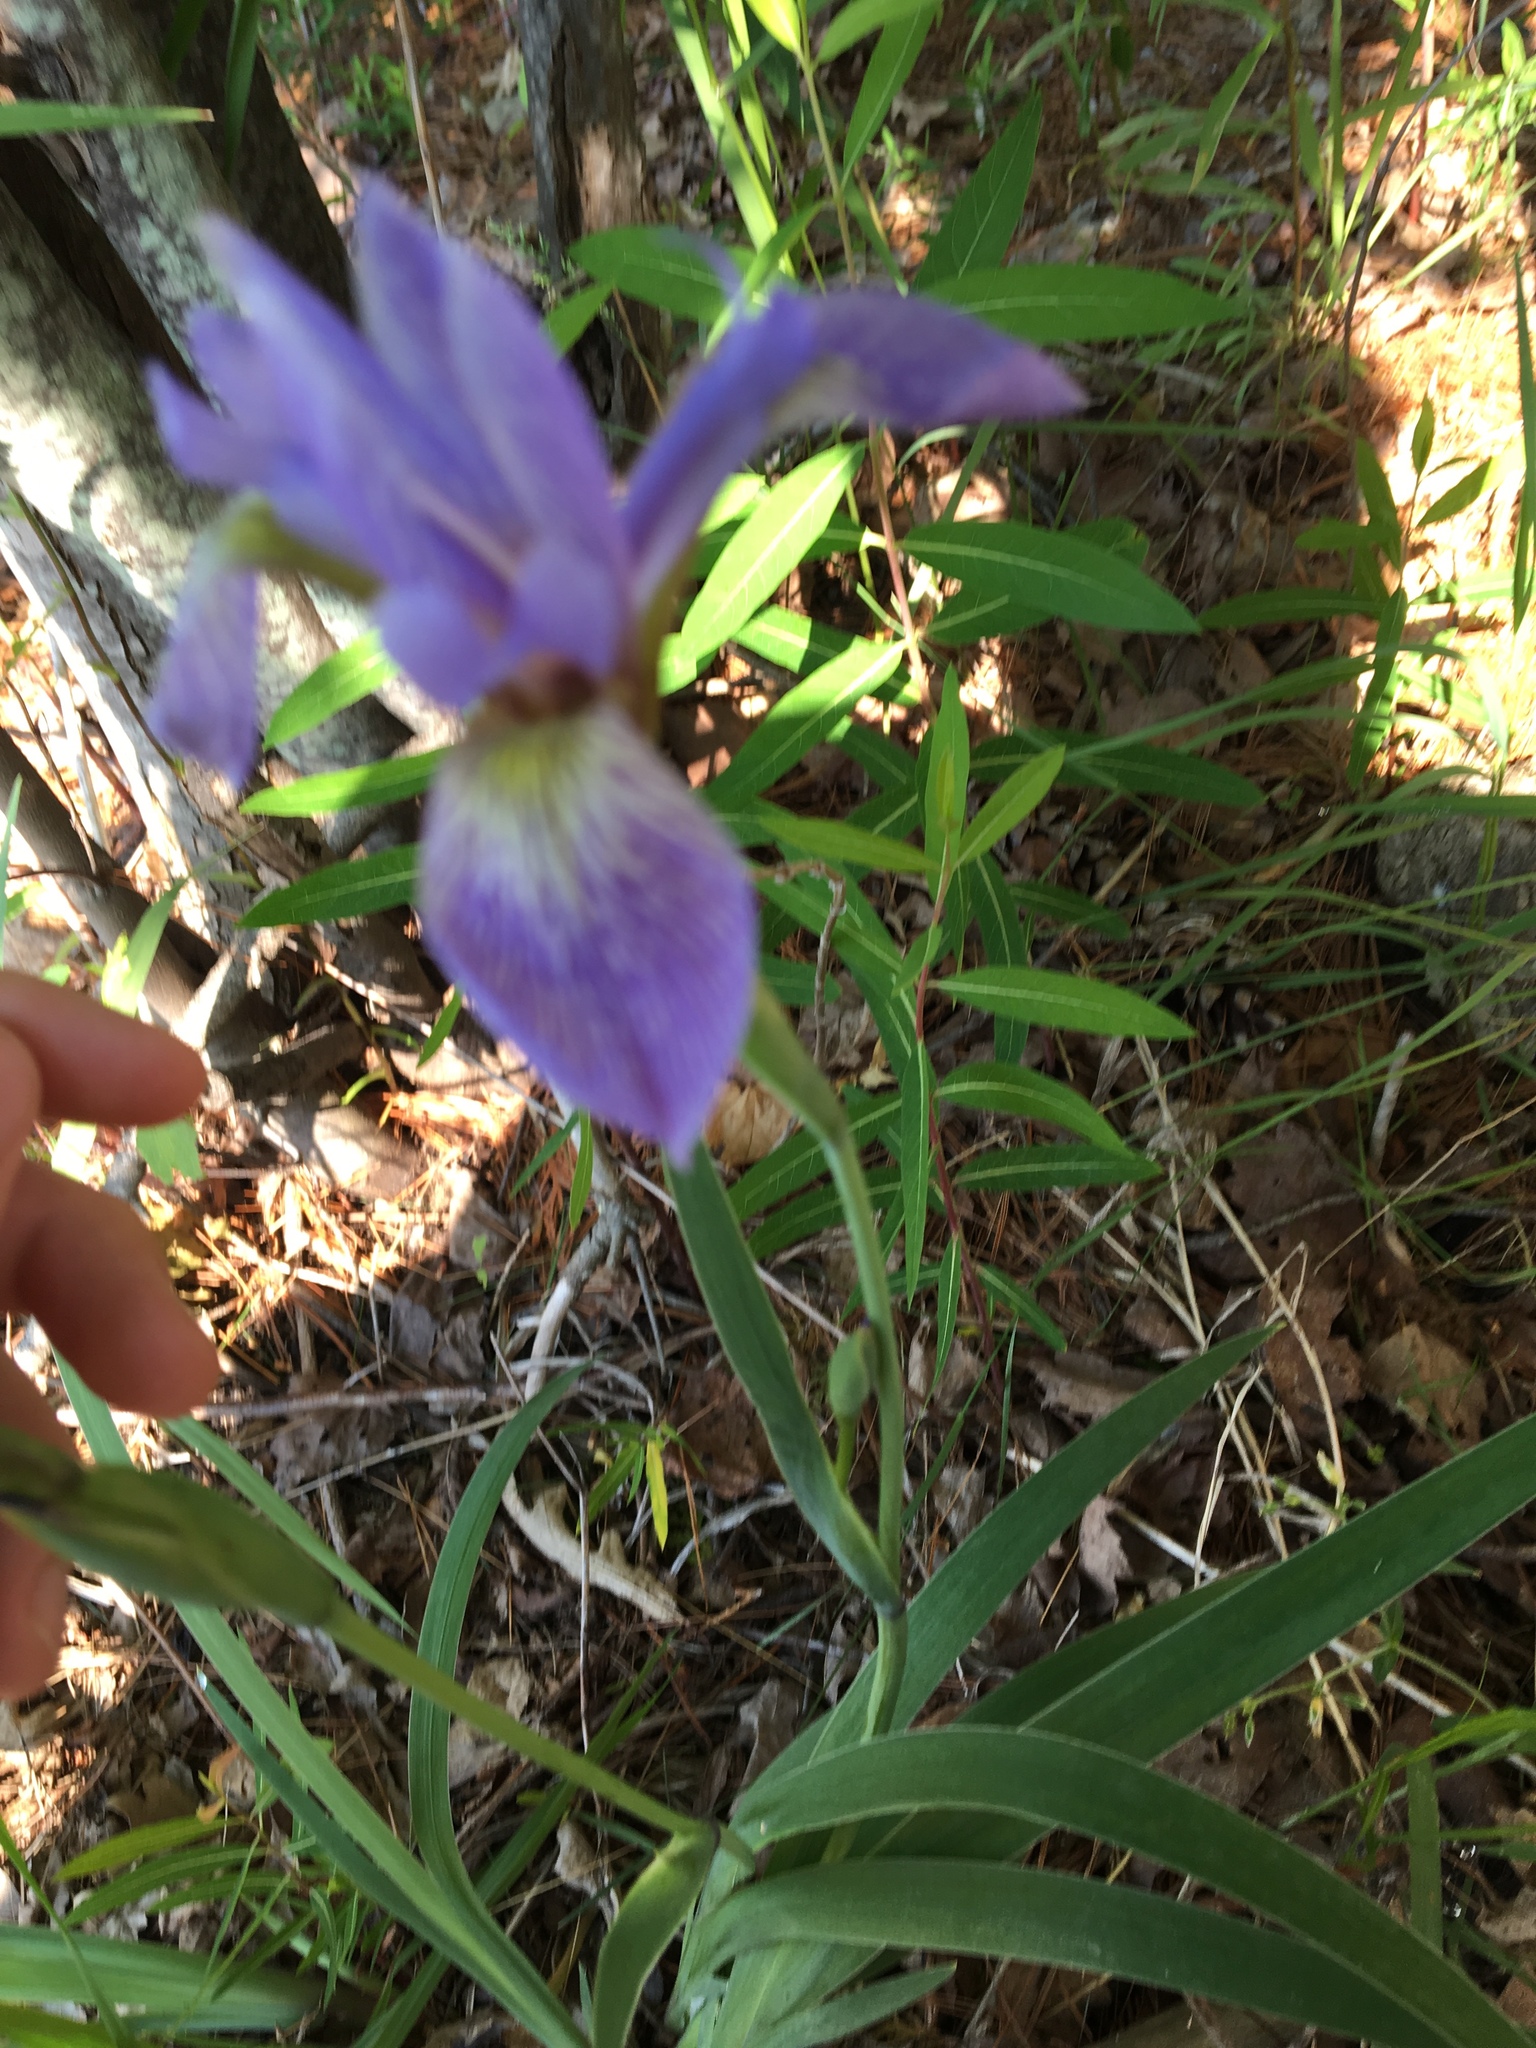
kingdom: Plantae
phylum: Tracheophyta
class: Liliopsida
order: Asparagales
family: Iridaceae
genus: Iris
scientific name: Iris versicolor
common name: Purple iris
